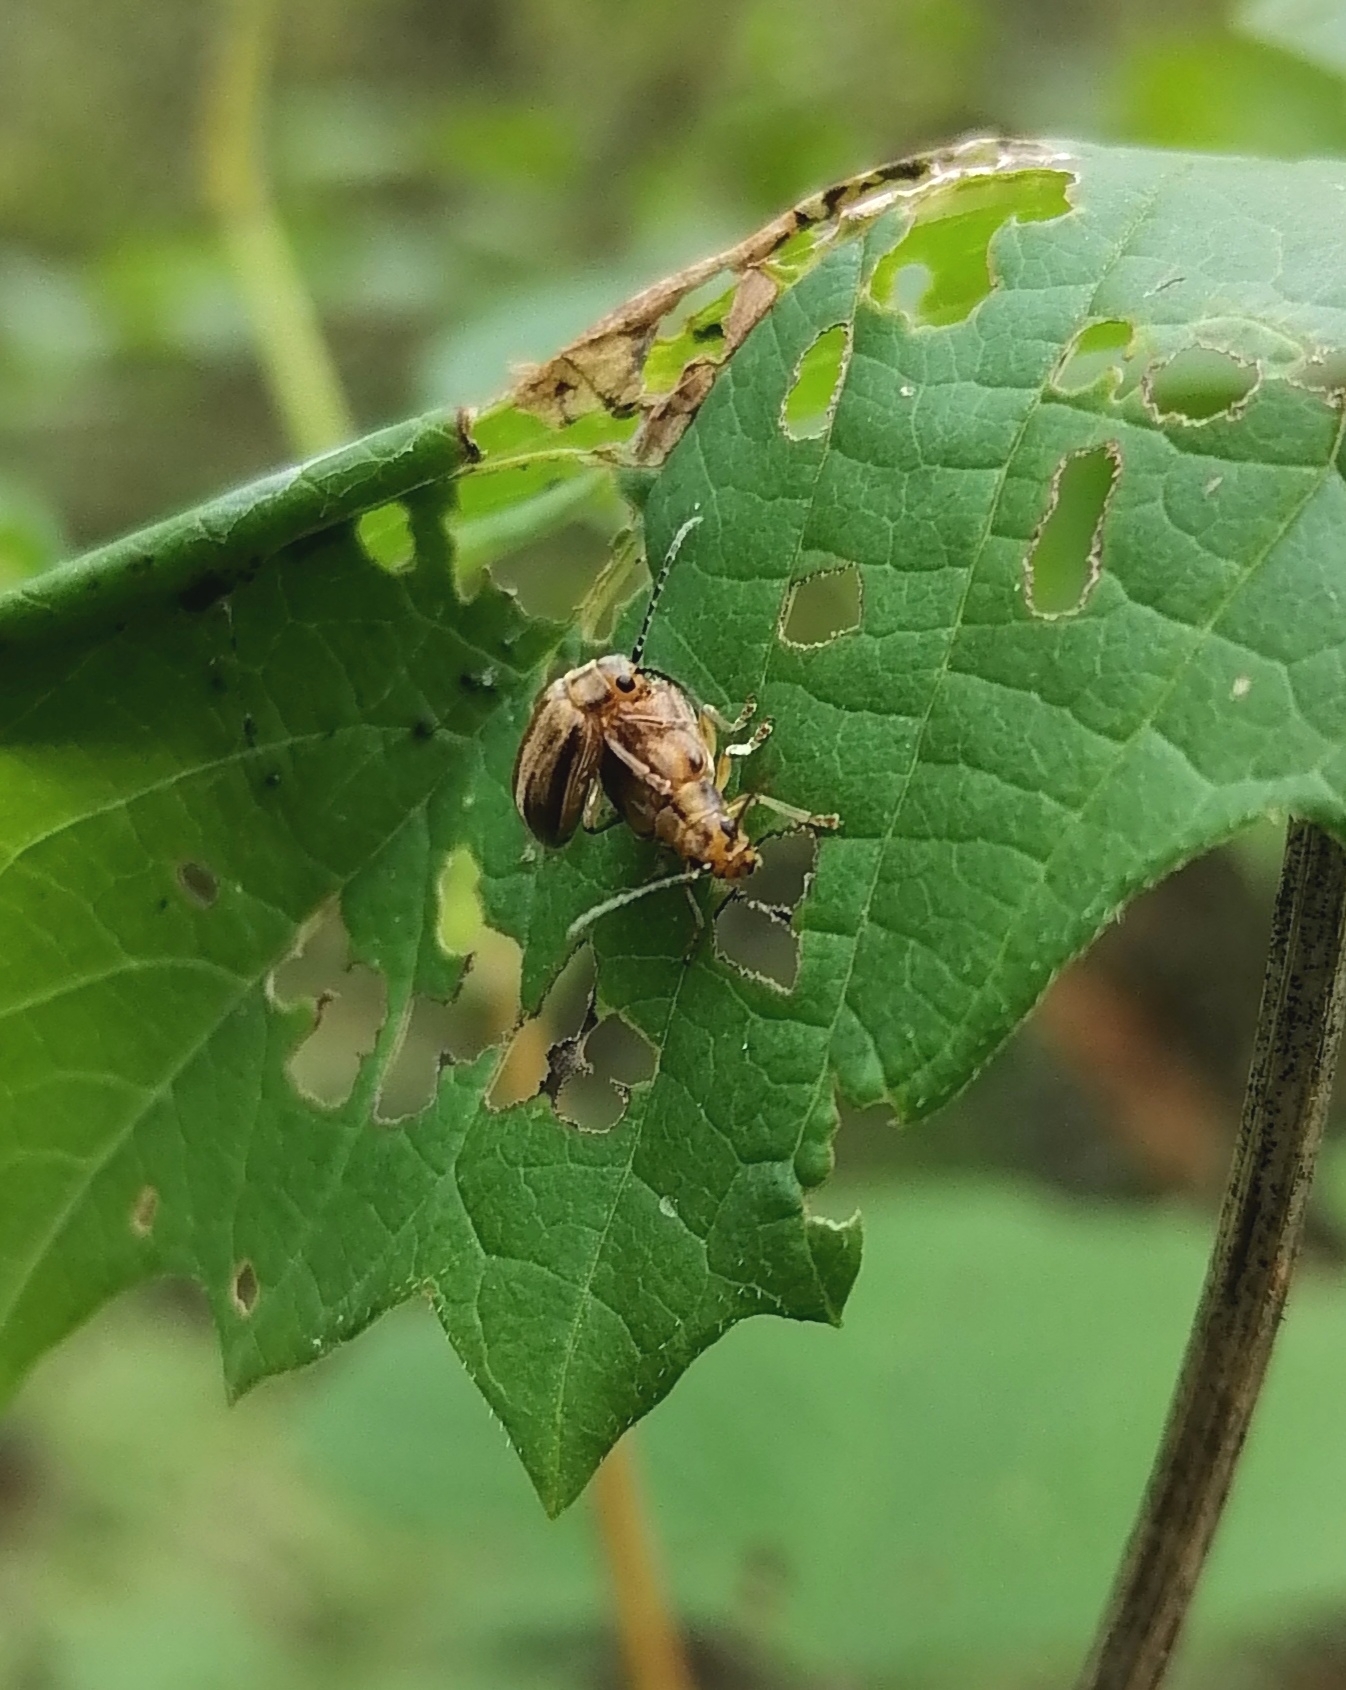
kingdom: Animalia
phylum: Arthropoda
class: Insecta
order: Coleoptera
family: Chrysomelidae
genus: Pyrrhalta
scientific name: Pyrrhalta viburni
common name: Guelder-rose leaf beetle
